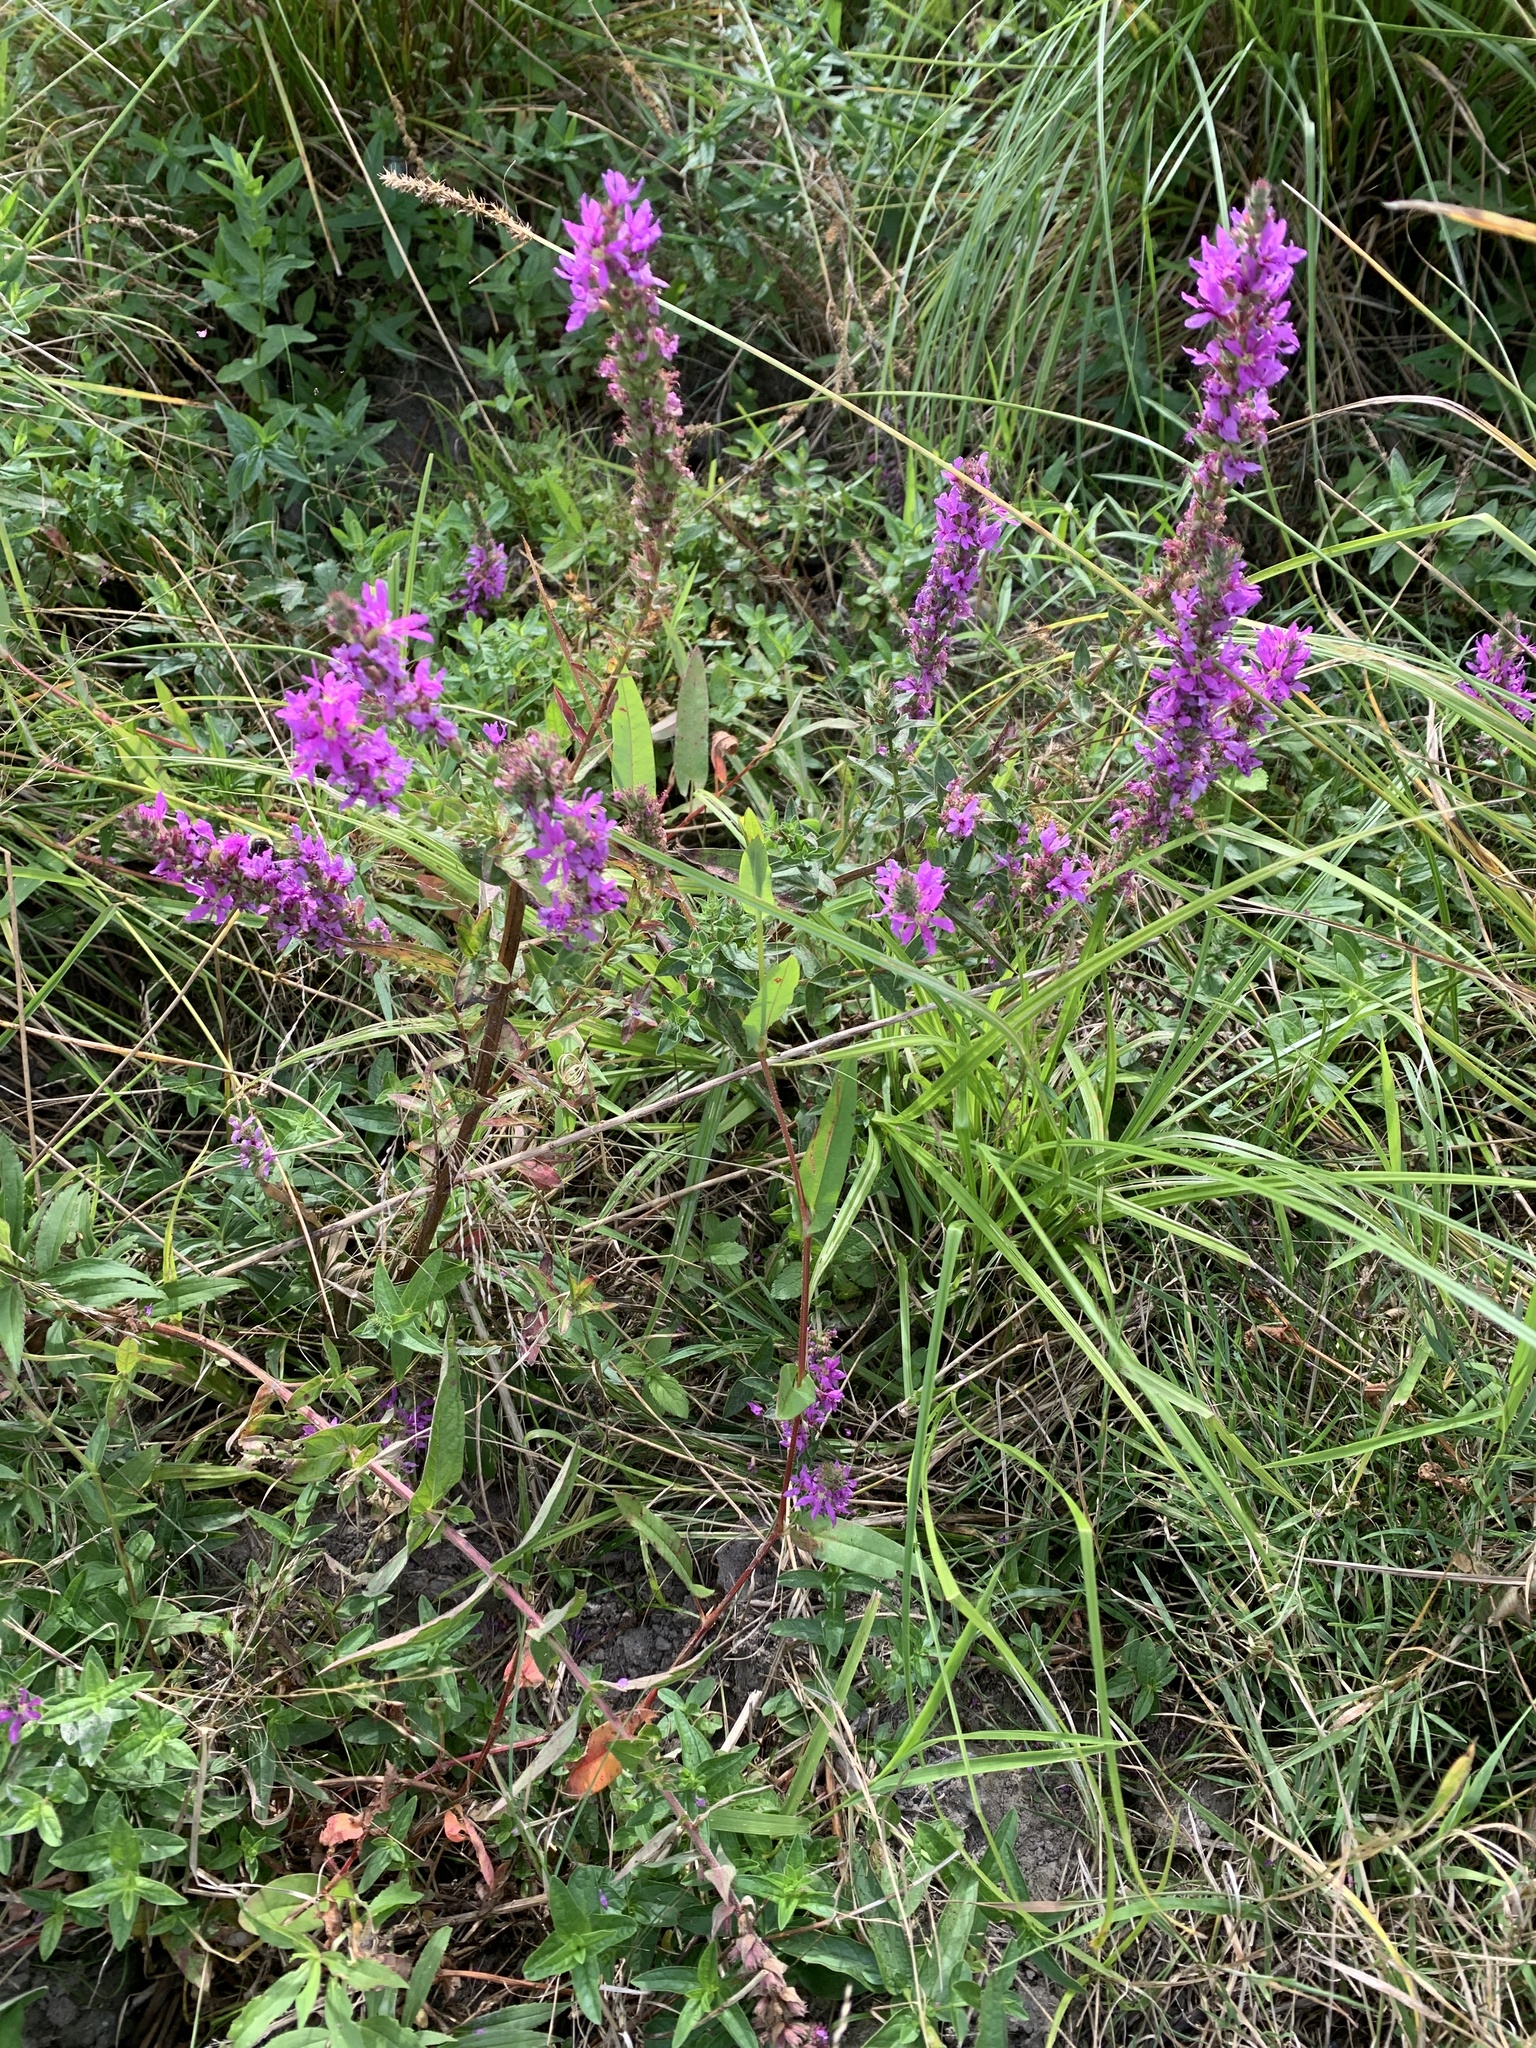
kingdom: Plantae
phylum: Tracheophyta
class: Magnoliopsida
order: Myrtales
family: Lythraceae
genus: Lythrum
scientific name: Lythrum salicaria
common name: Purple loosestrife
